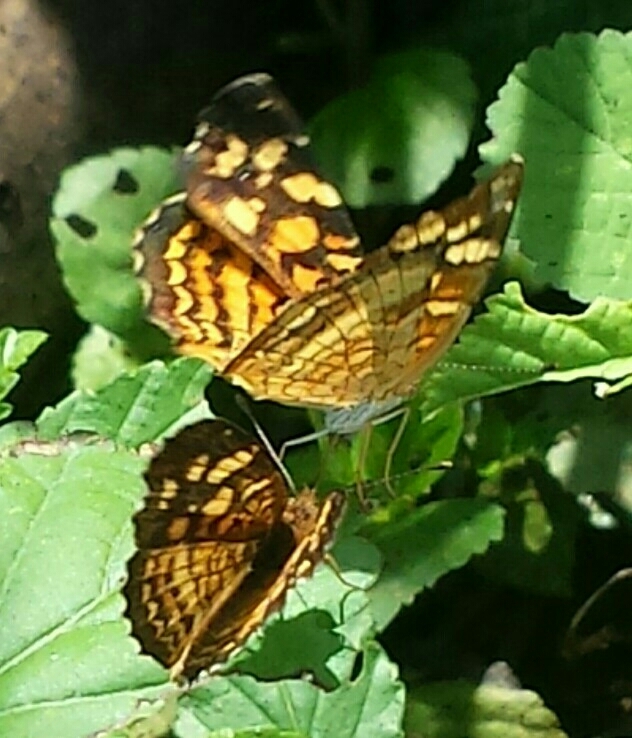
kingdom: Animalia
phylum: Arthropoda
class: Insecta
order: Lepidoptera
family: Nymphalidae
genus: Anthanassa
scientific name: Anthanassa frisia
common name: Cuban crescent
